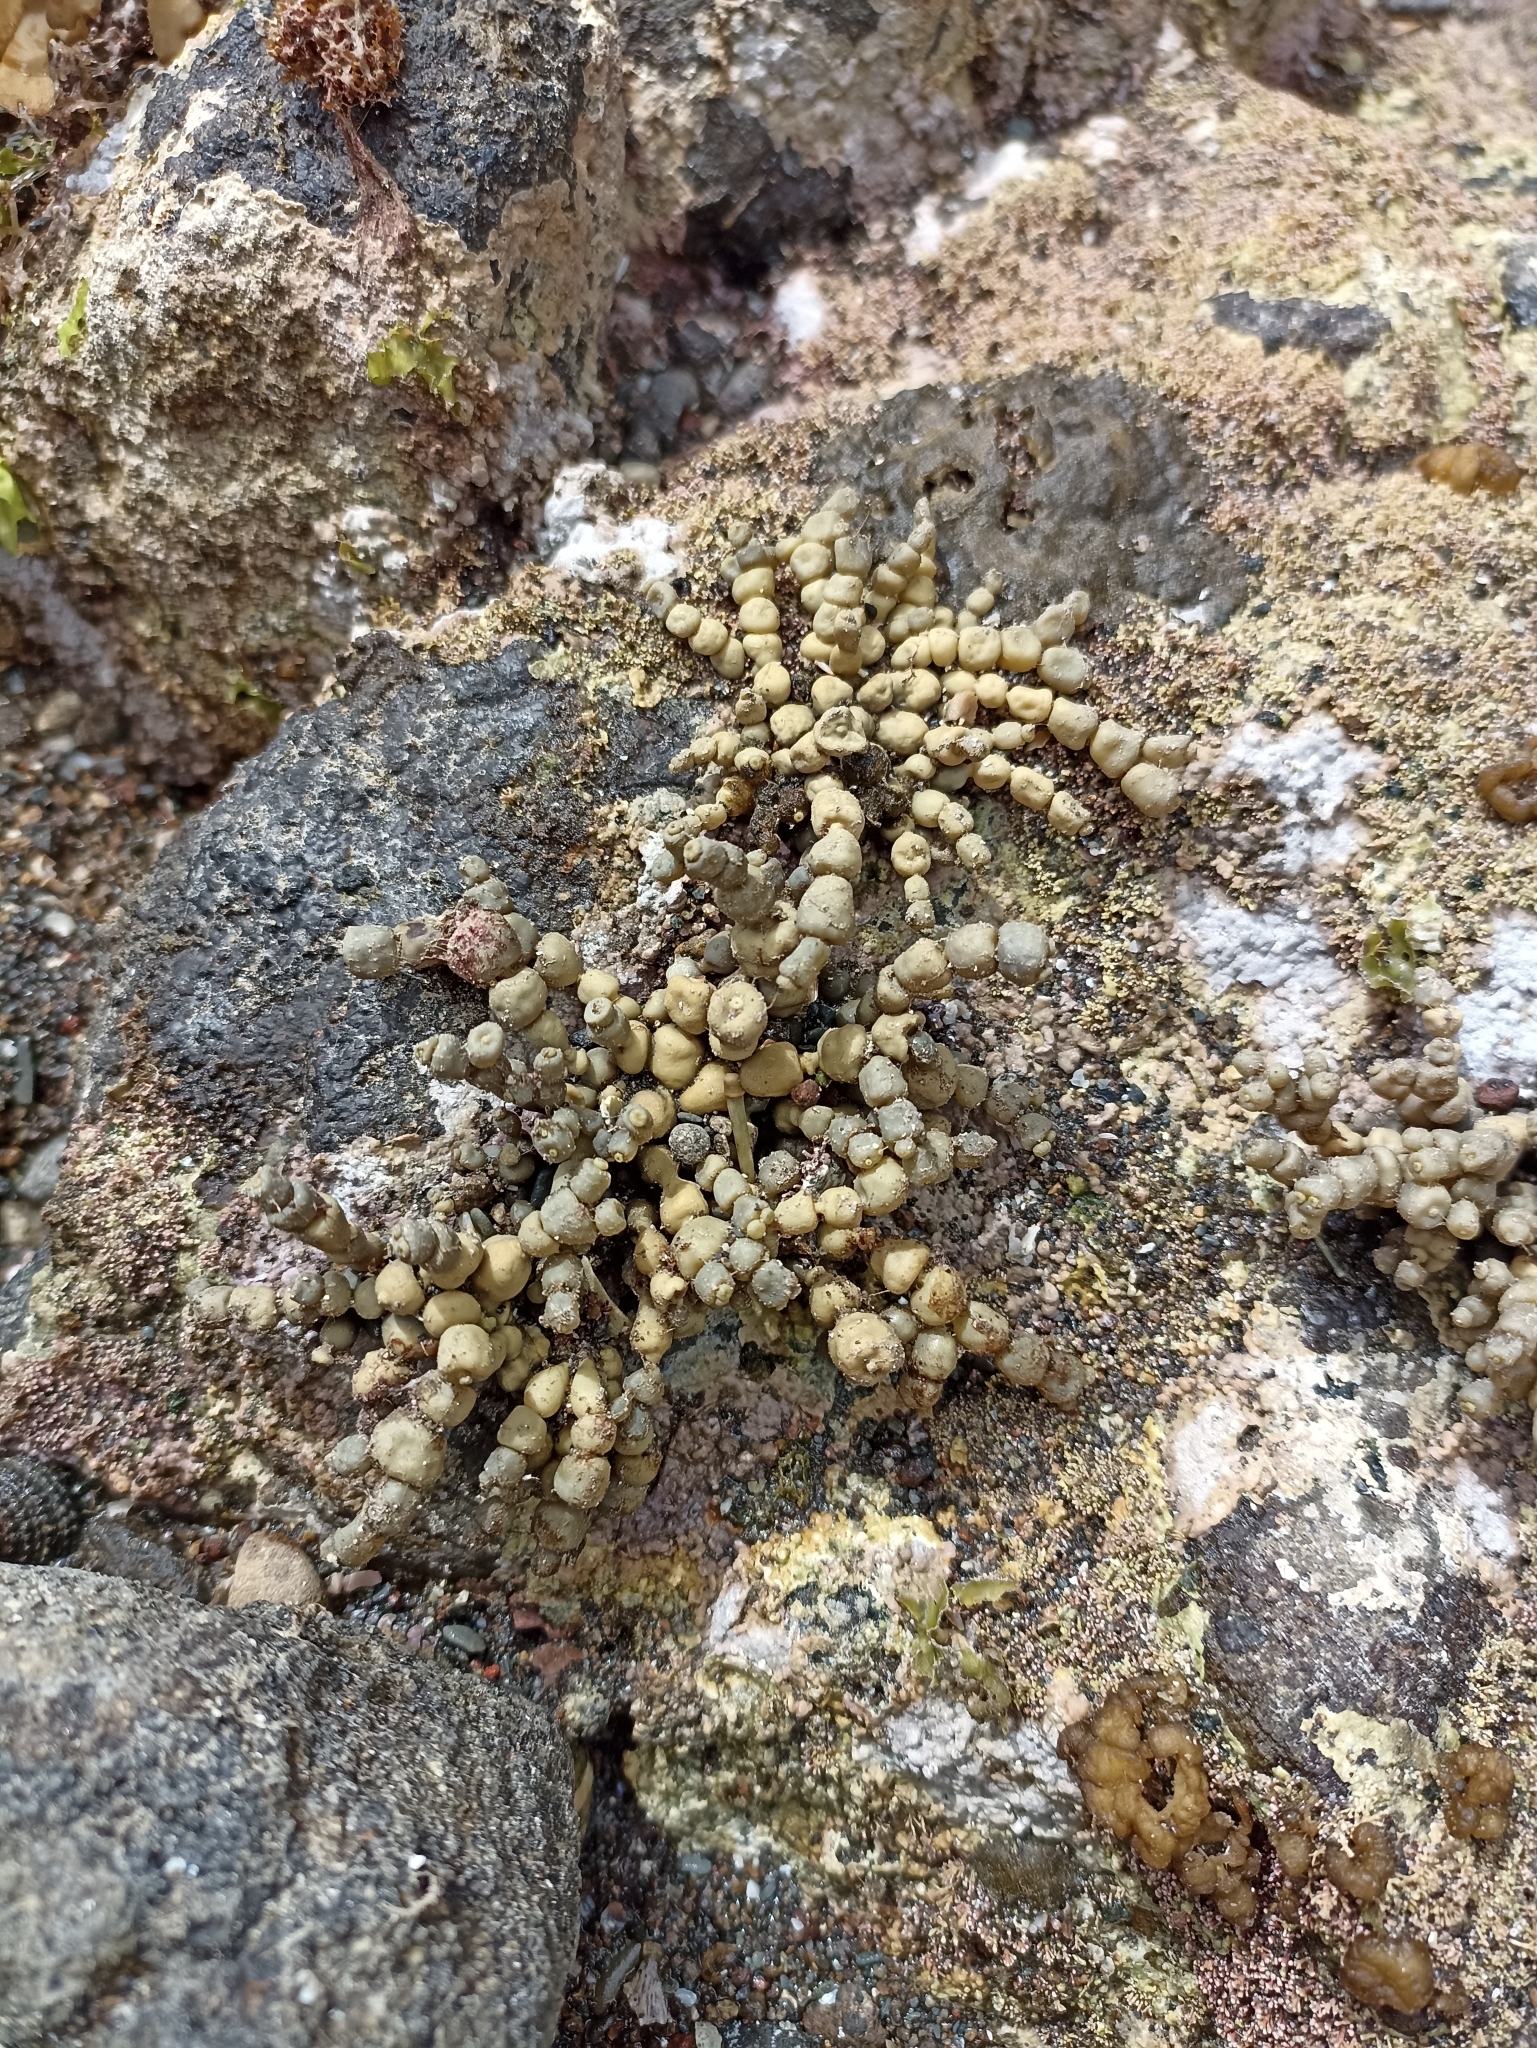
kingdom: Chromista
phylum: Ochrophyta
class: Phaeophyceae
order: Fucales
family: Hormosiraceae
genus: Hormosira
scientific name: Hormosira banksii
